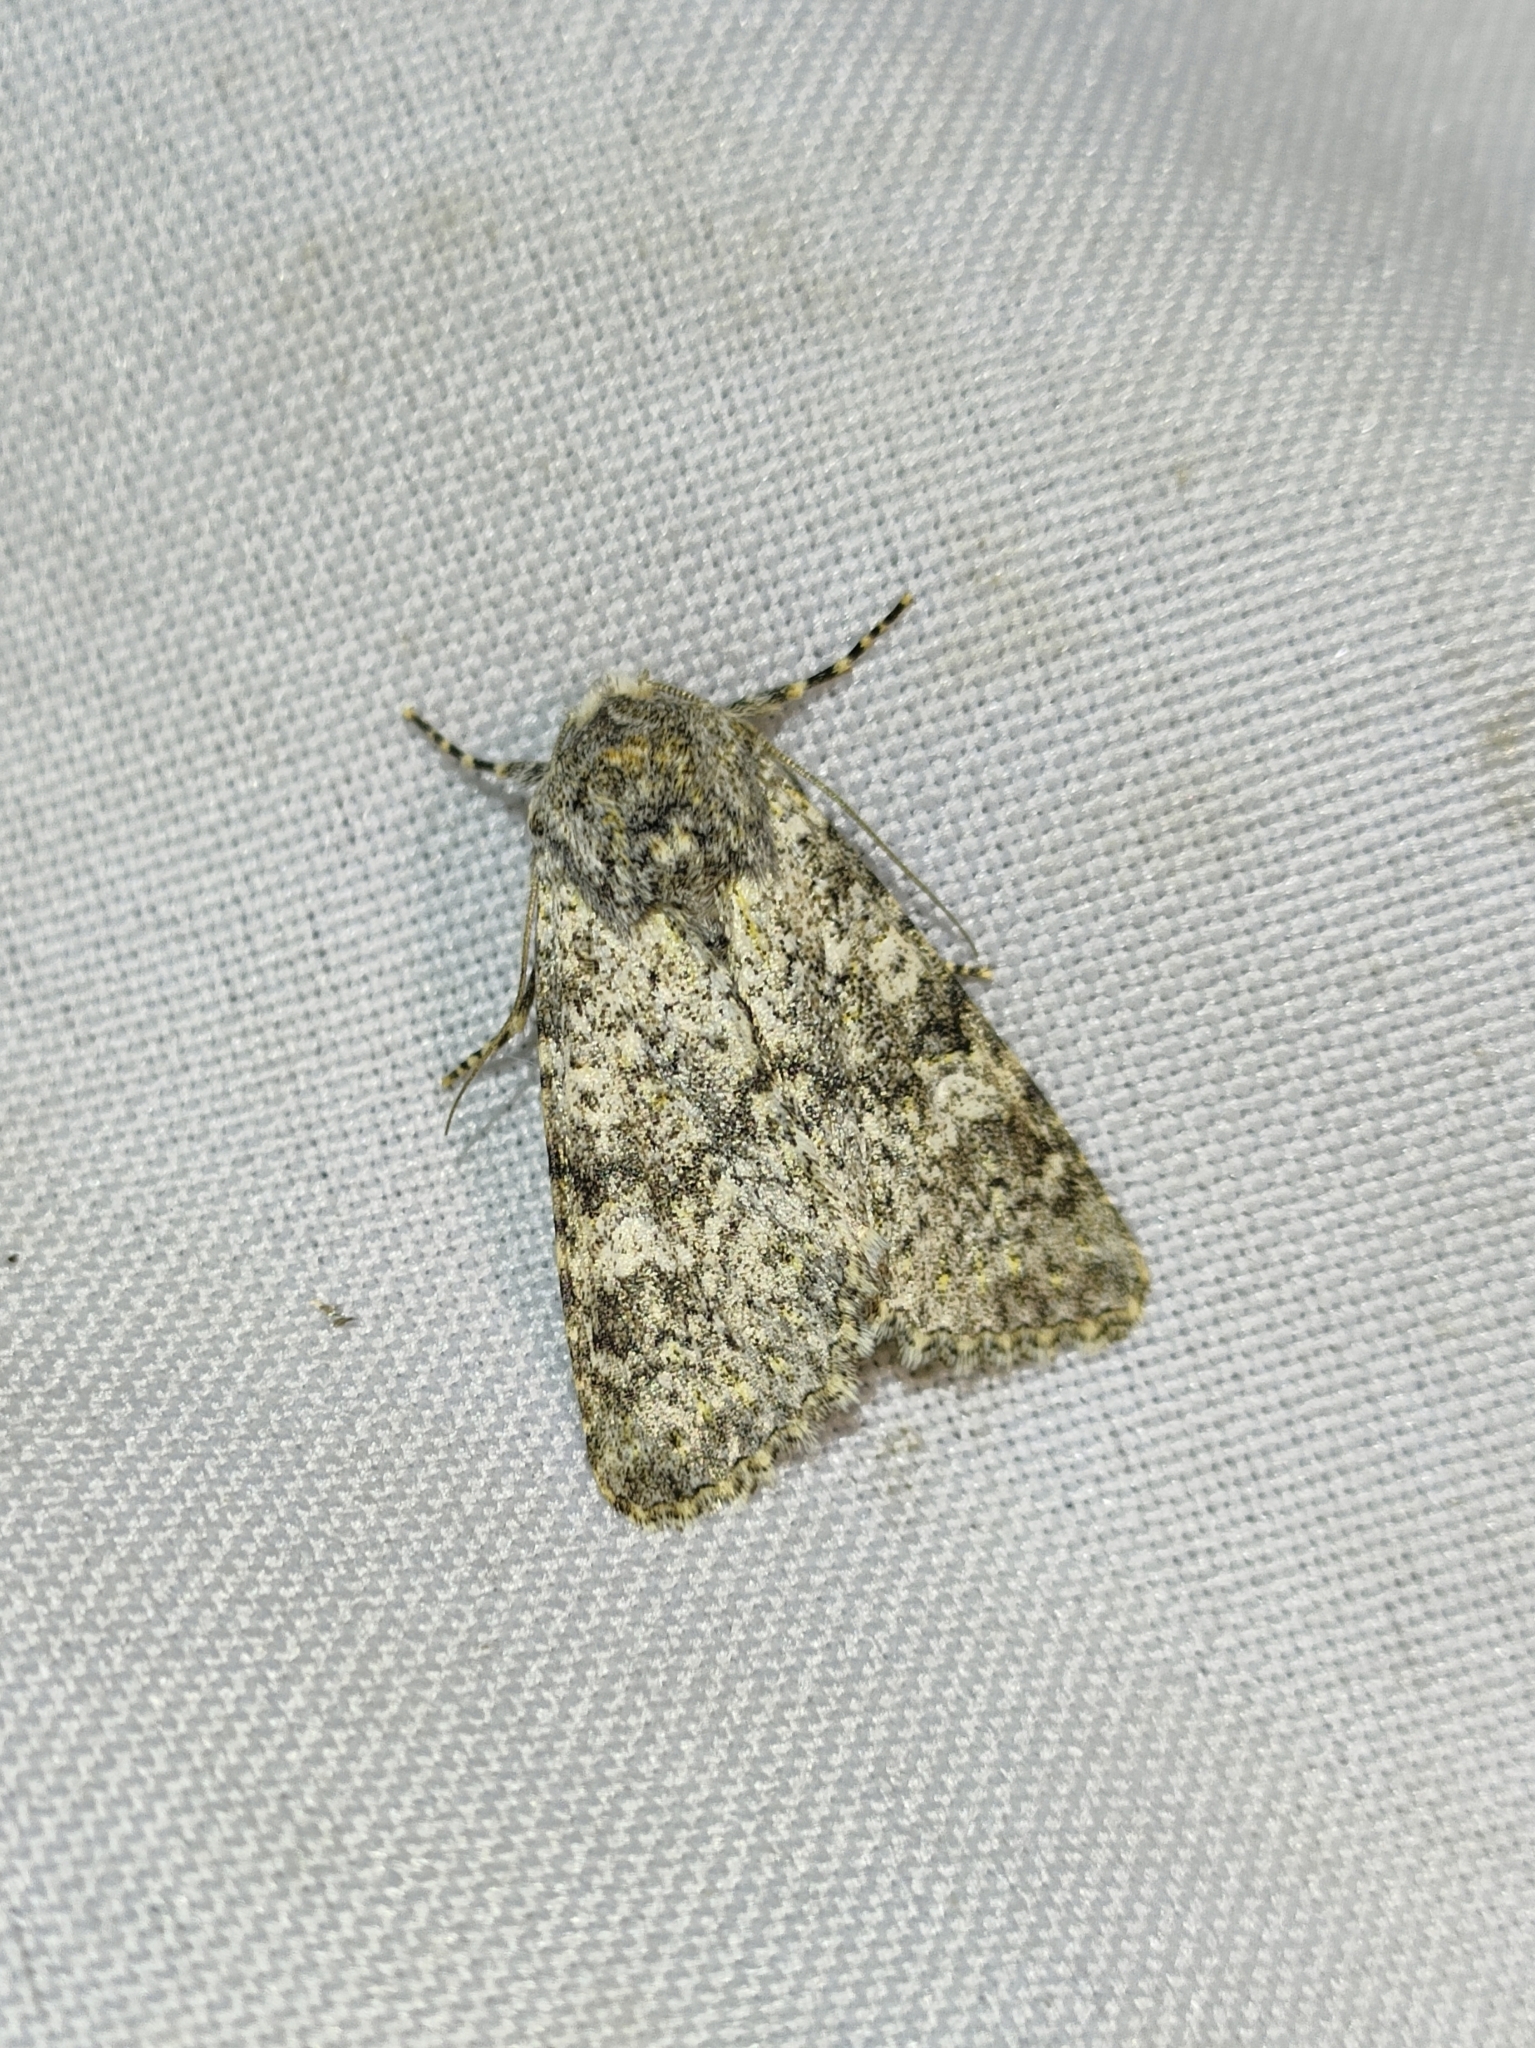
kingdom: Animalia
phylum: Arthropoda
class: Insecta
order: Lepidoptera
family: Noctuidae
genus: Polymixis
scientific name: Polymixis flavicincta
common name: Large ranunculus
